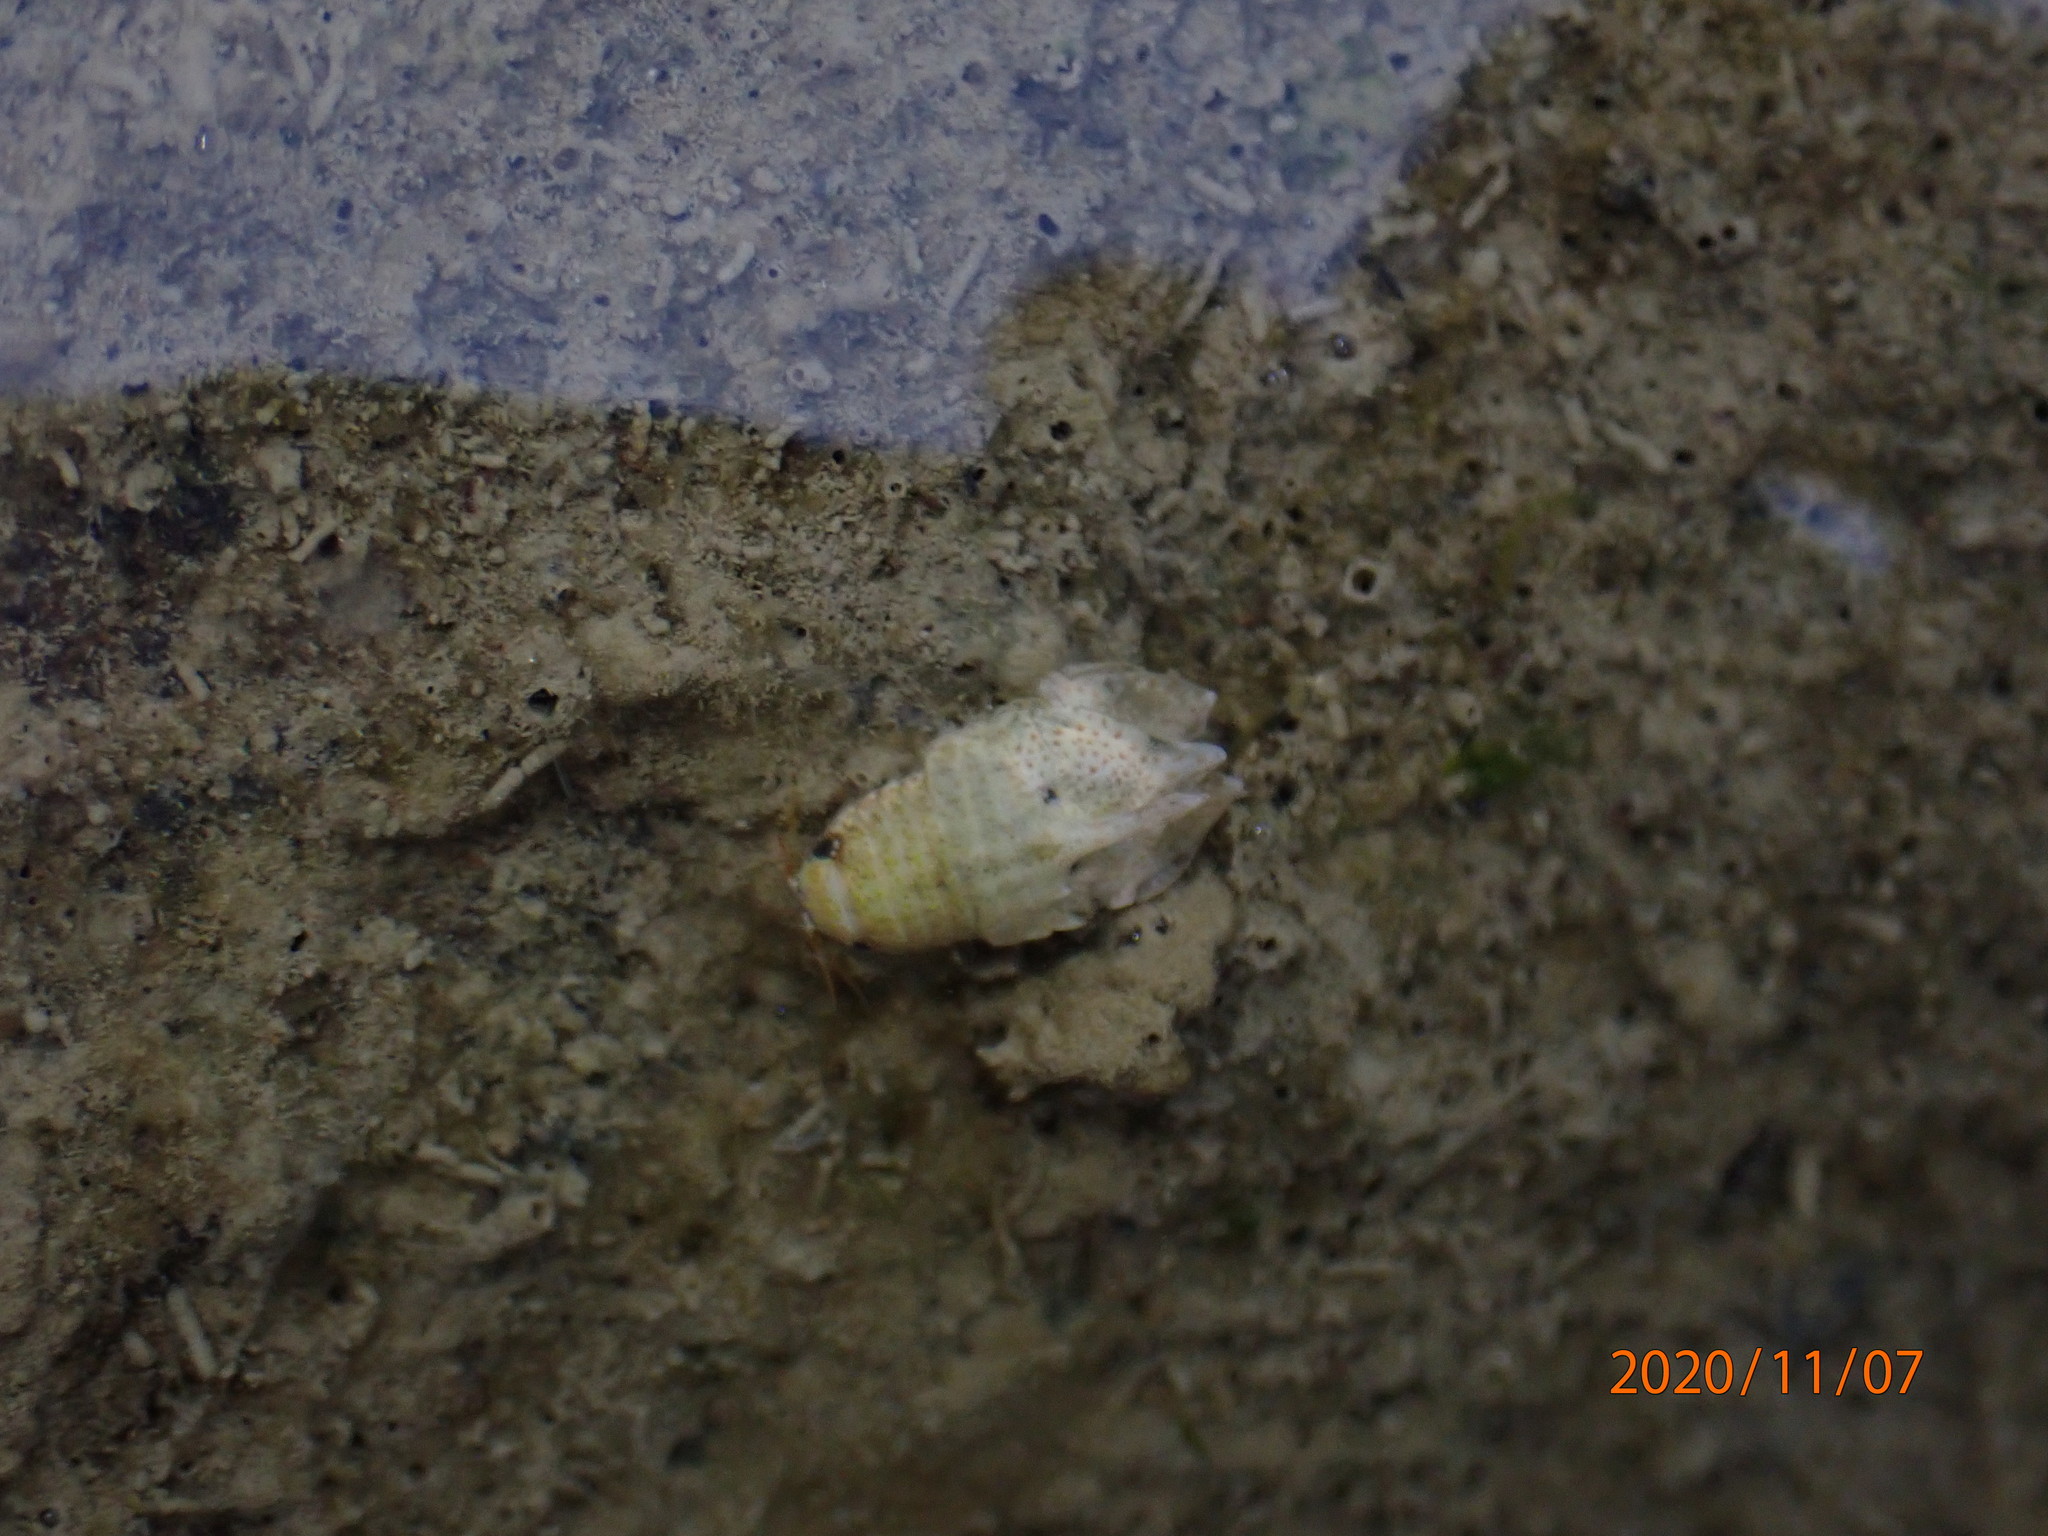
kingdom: Animalia
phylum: Arthropoda
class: Malacostraca
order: Isopoda
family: Sphaeromatidae
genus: Isocladus
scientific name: Isocladus armatus
